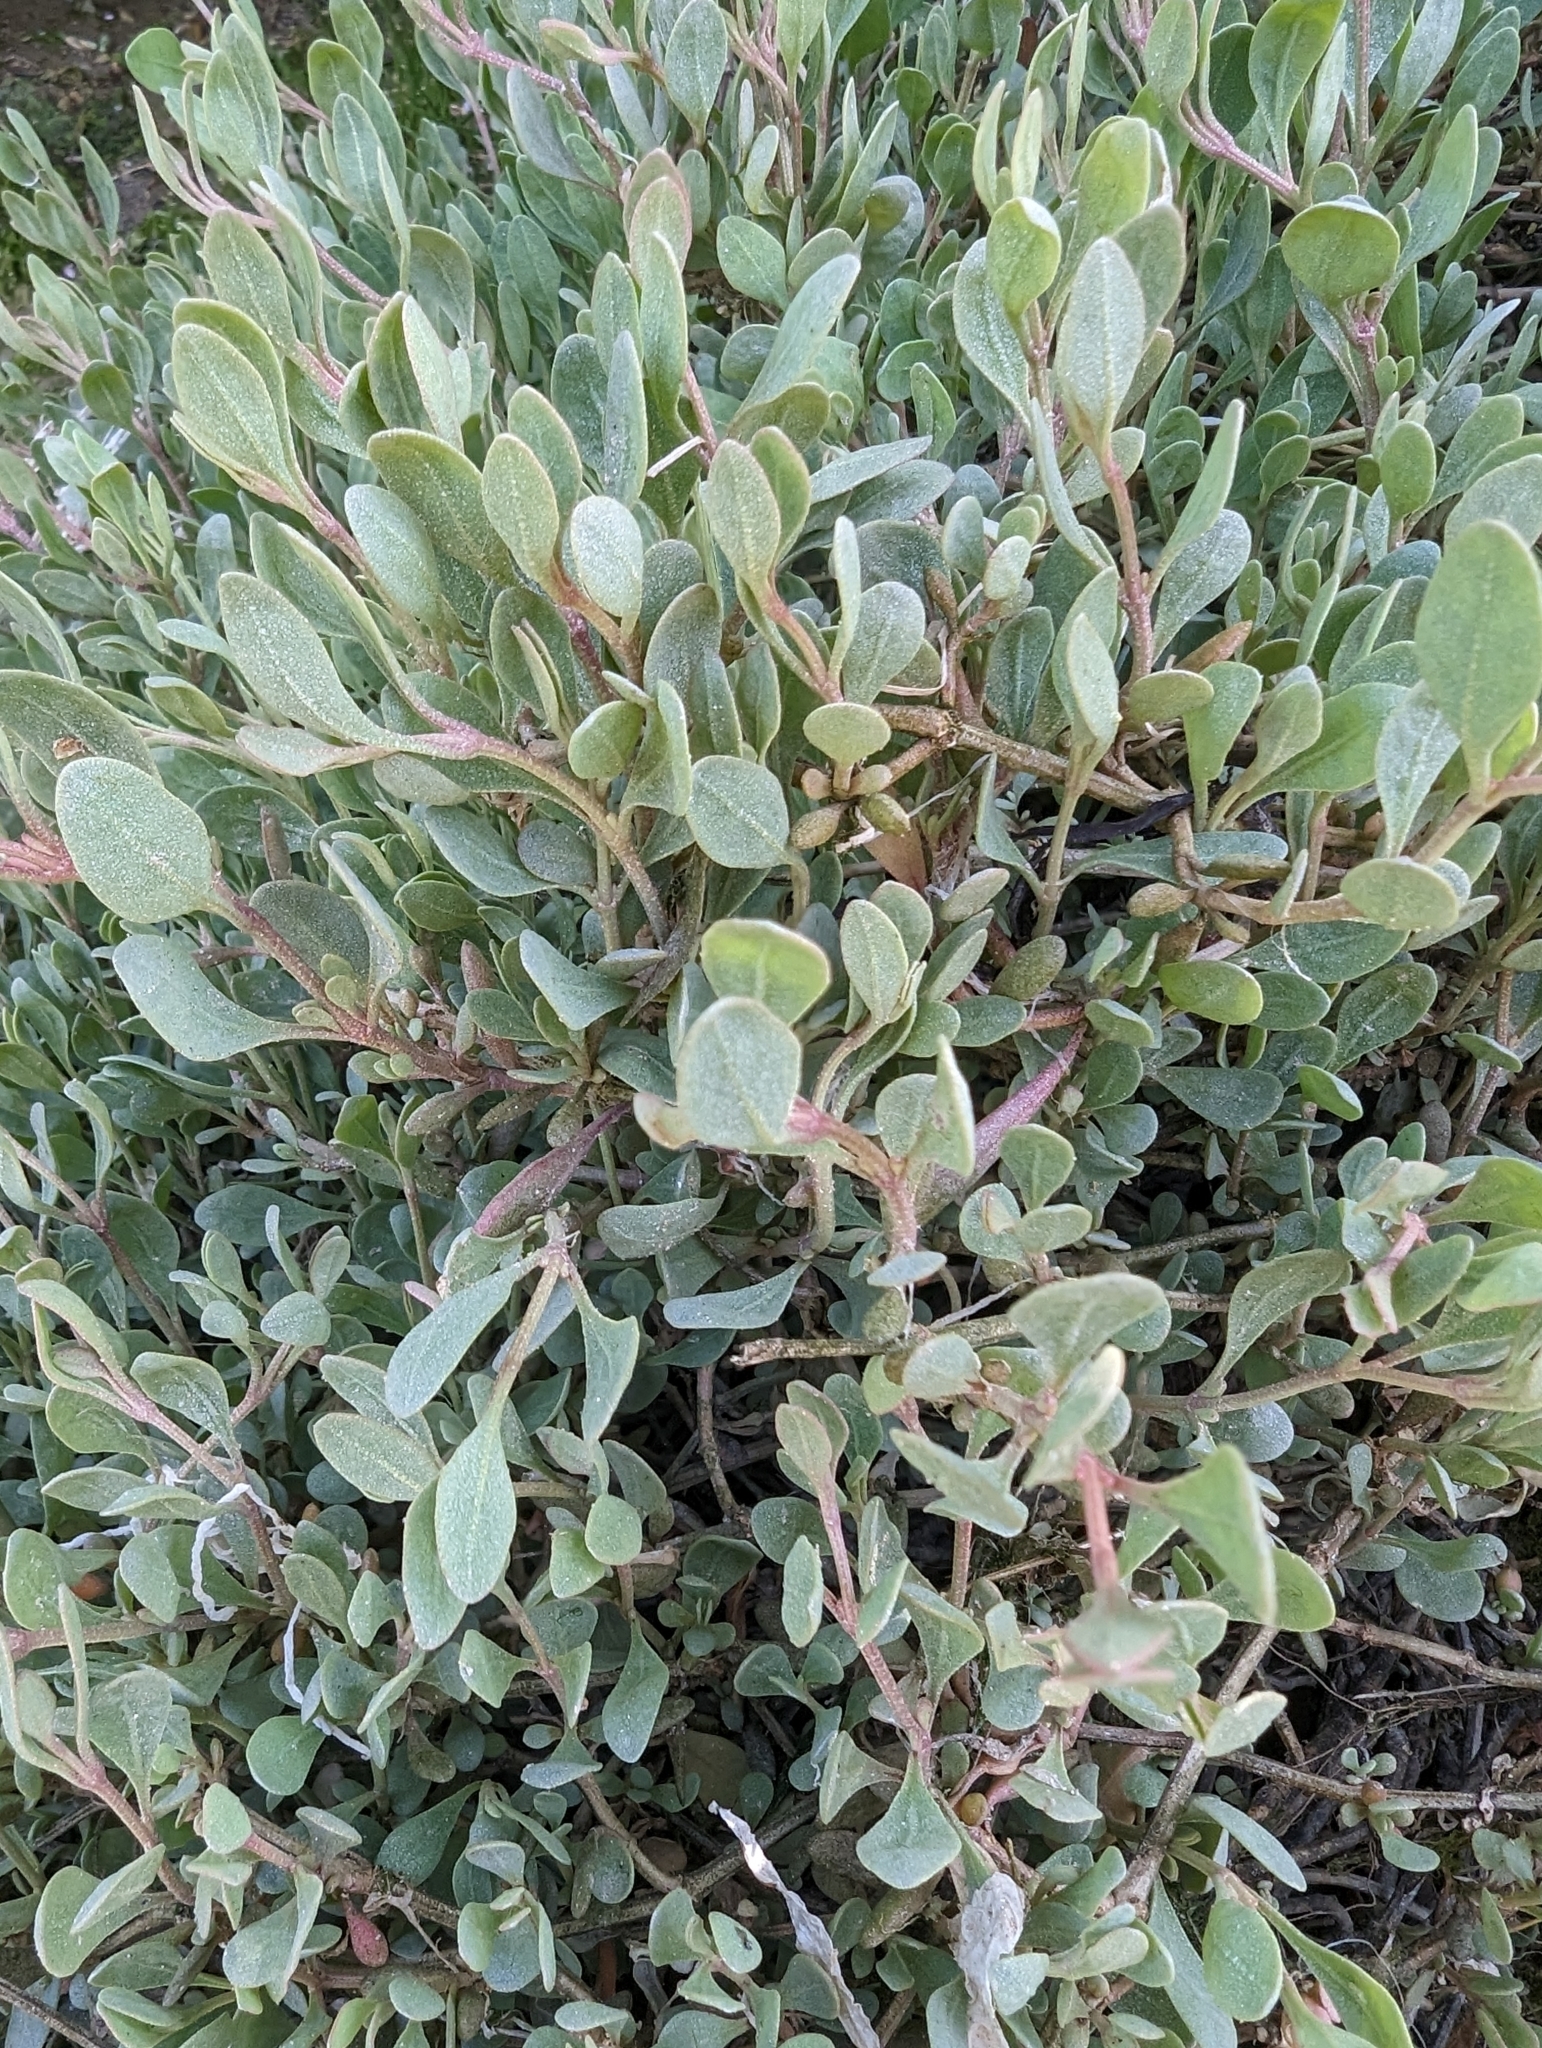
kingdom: Plantae
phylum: Tracheophyta
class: Magnoliopsida
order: Caryophyllales
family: Amaranthaceae
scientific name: Amaranthaceae
